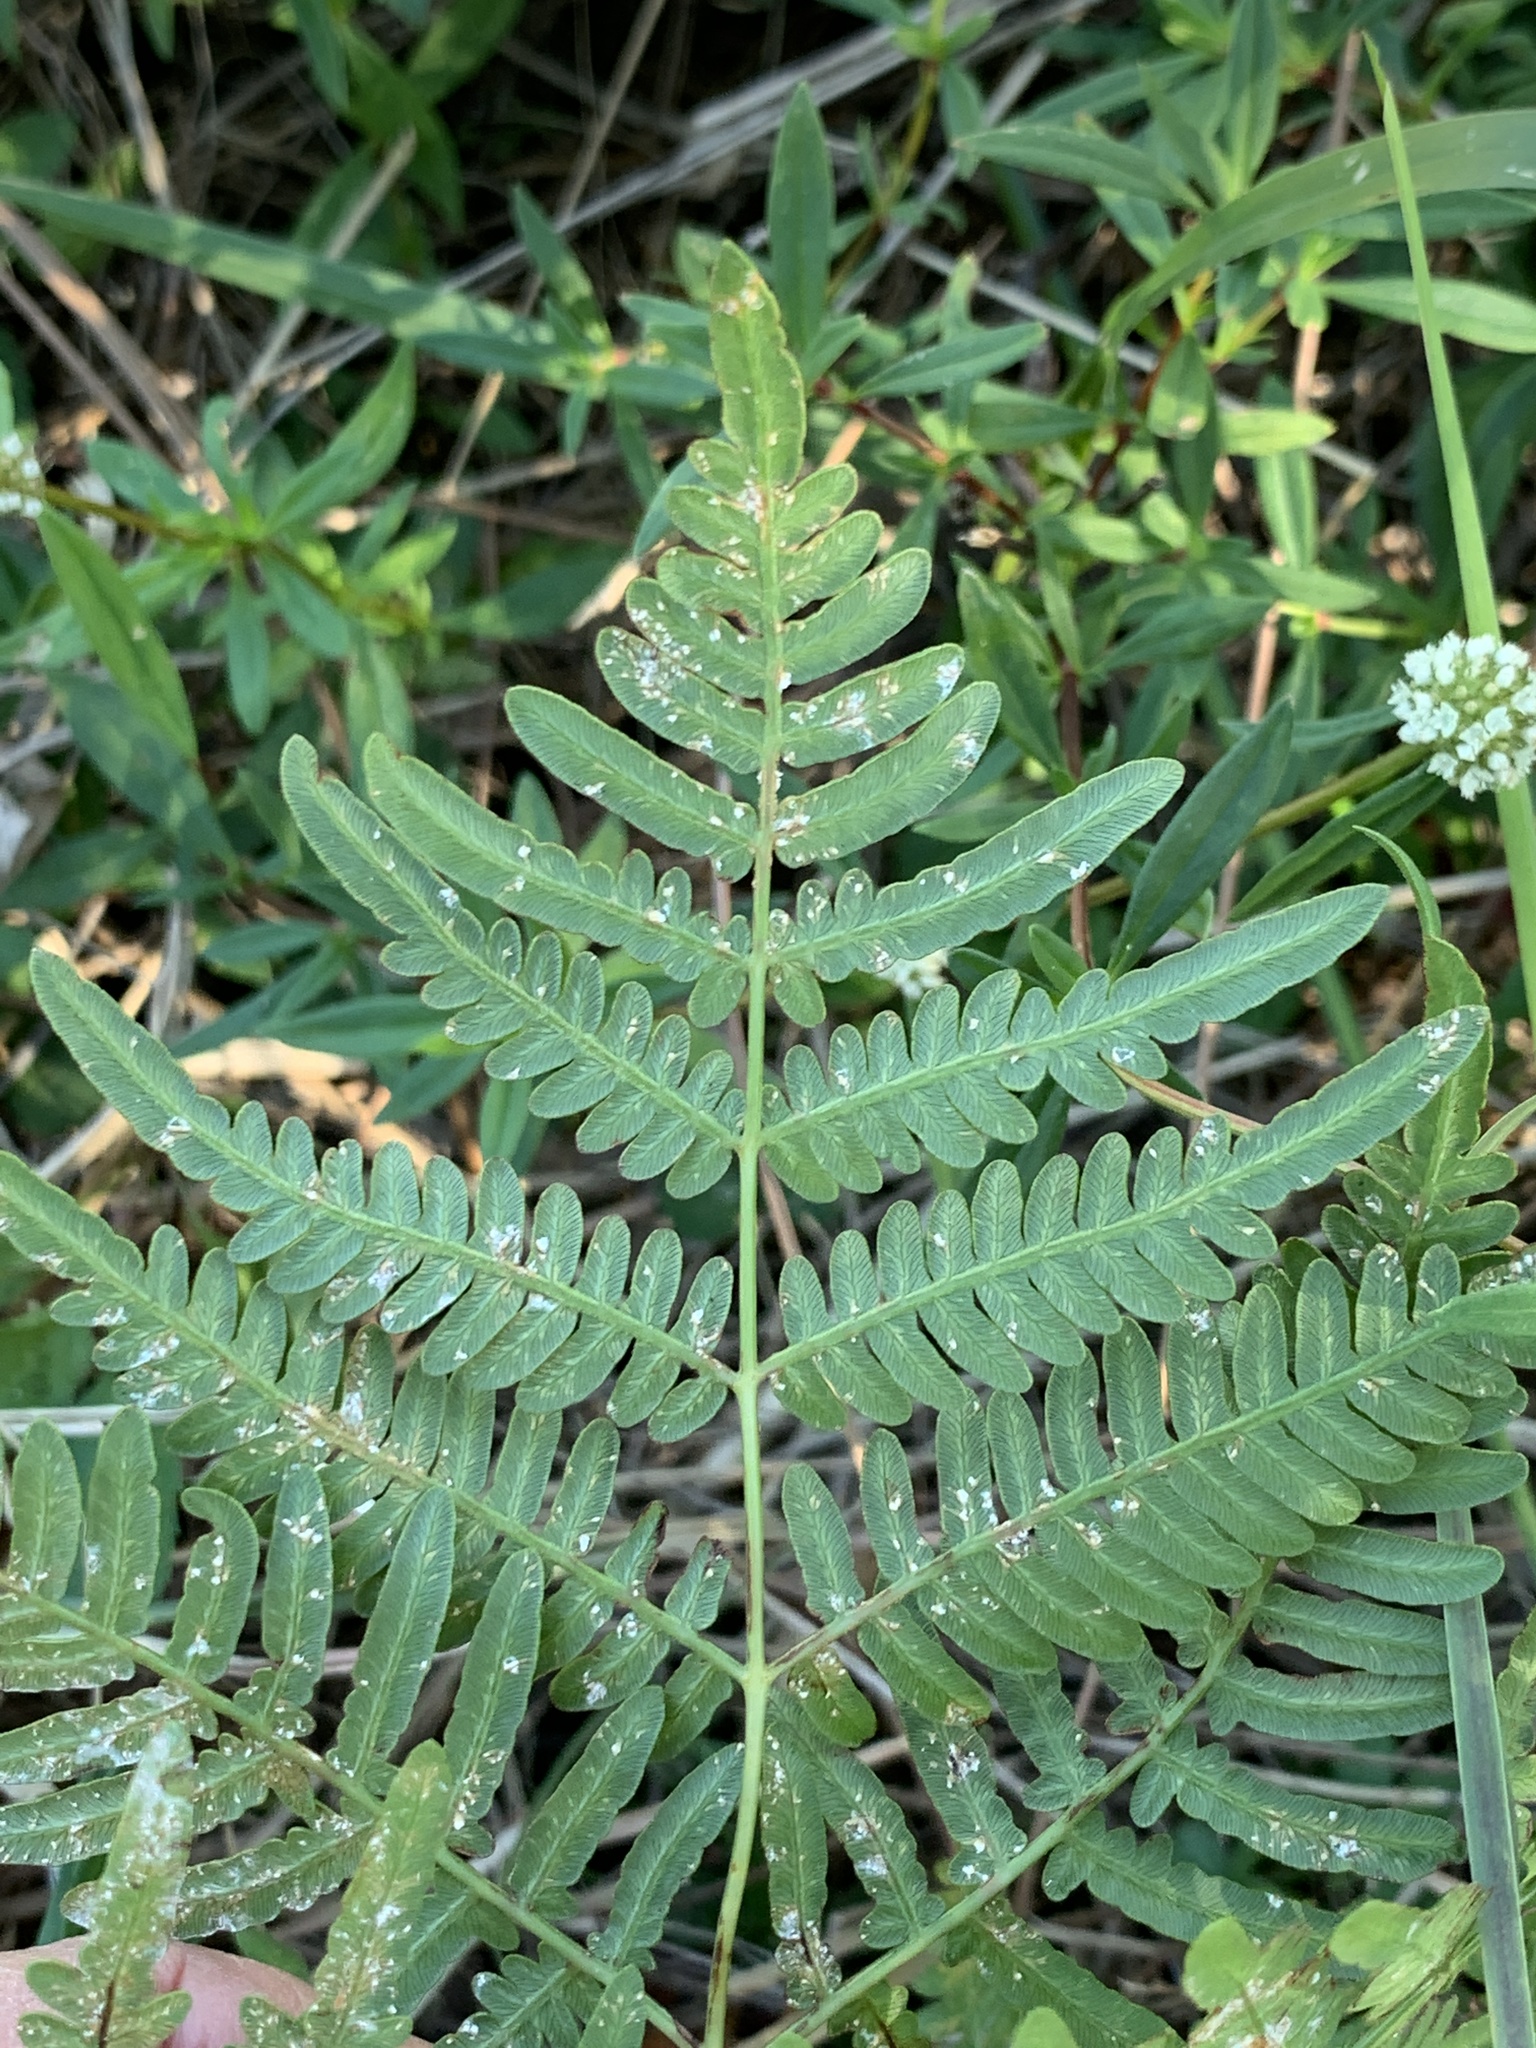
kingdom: Plantae
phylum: Tracheophyta
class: Polypodiopsida
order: Polypodiales
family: Dennstaedtiaceae
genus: Pteridium
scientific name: Pteridium aquilinum
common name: Bracken
